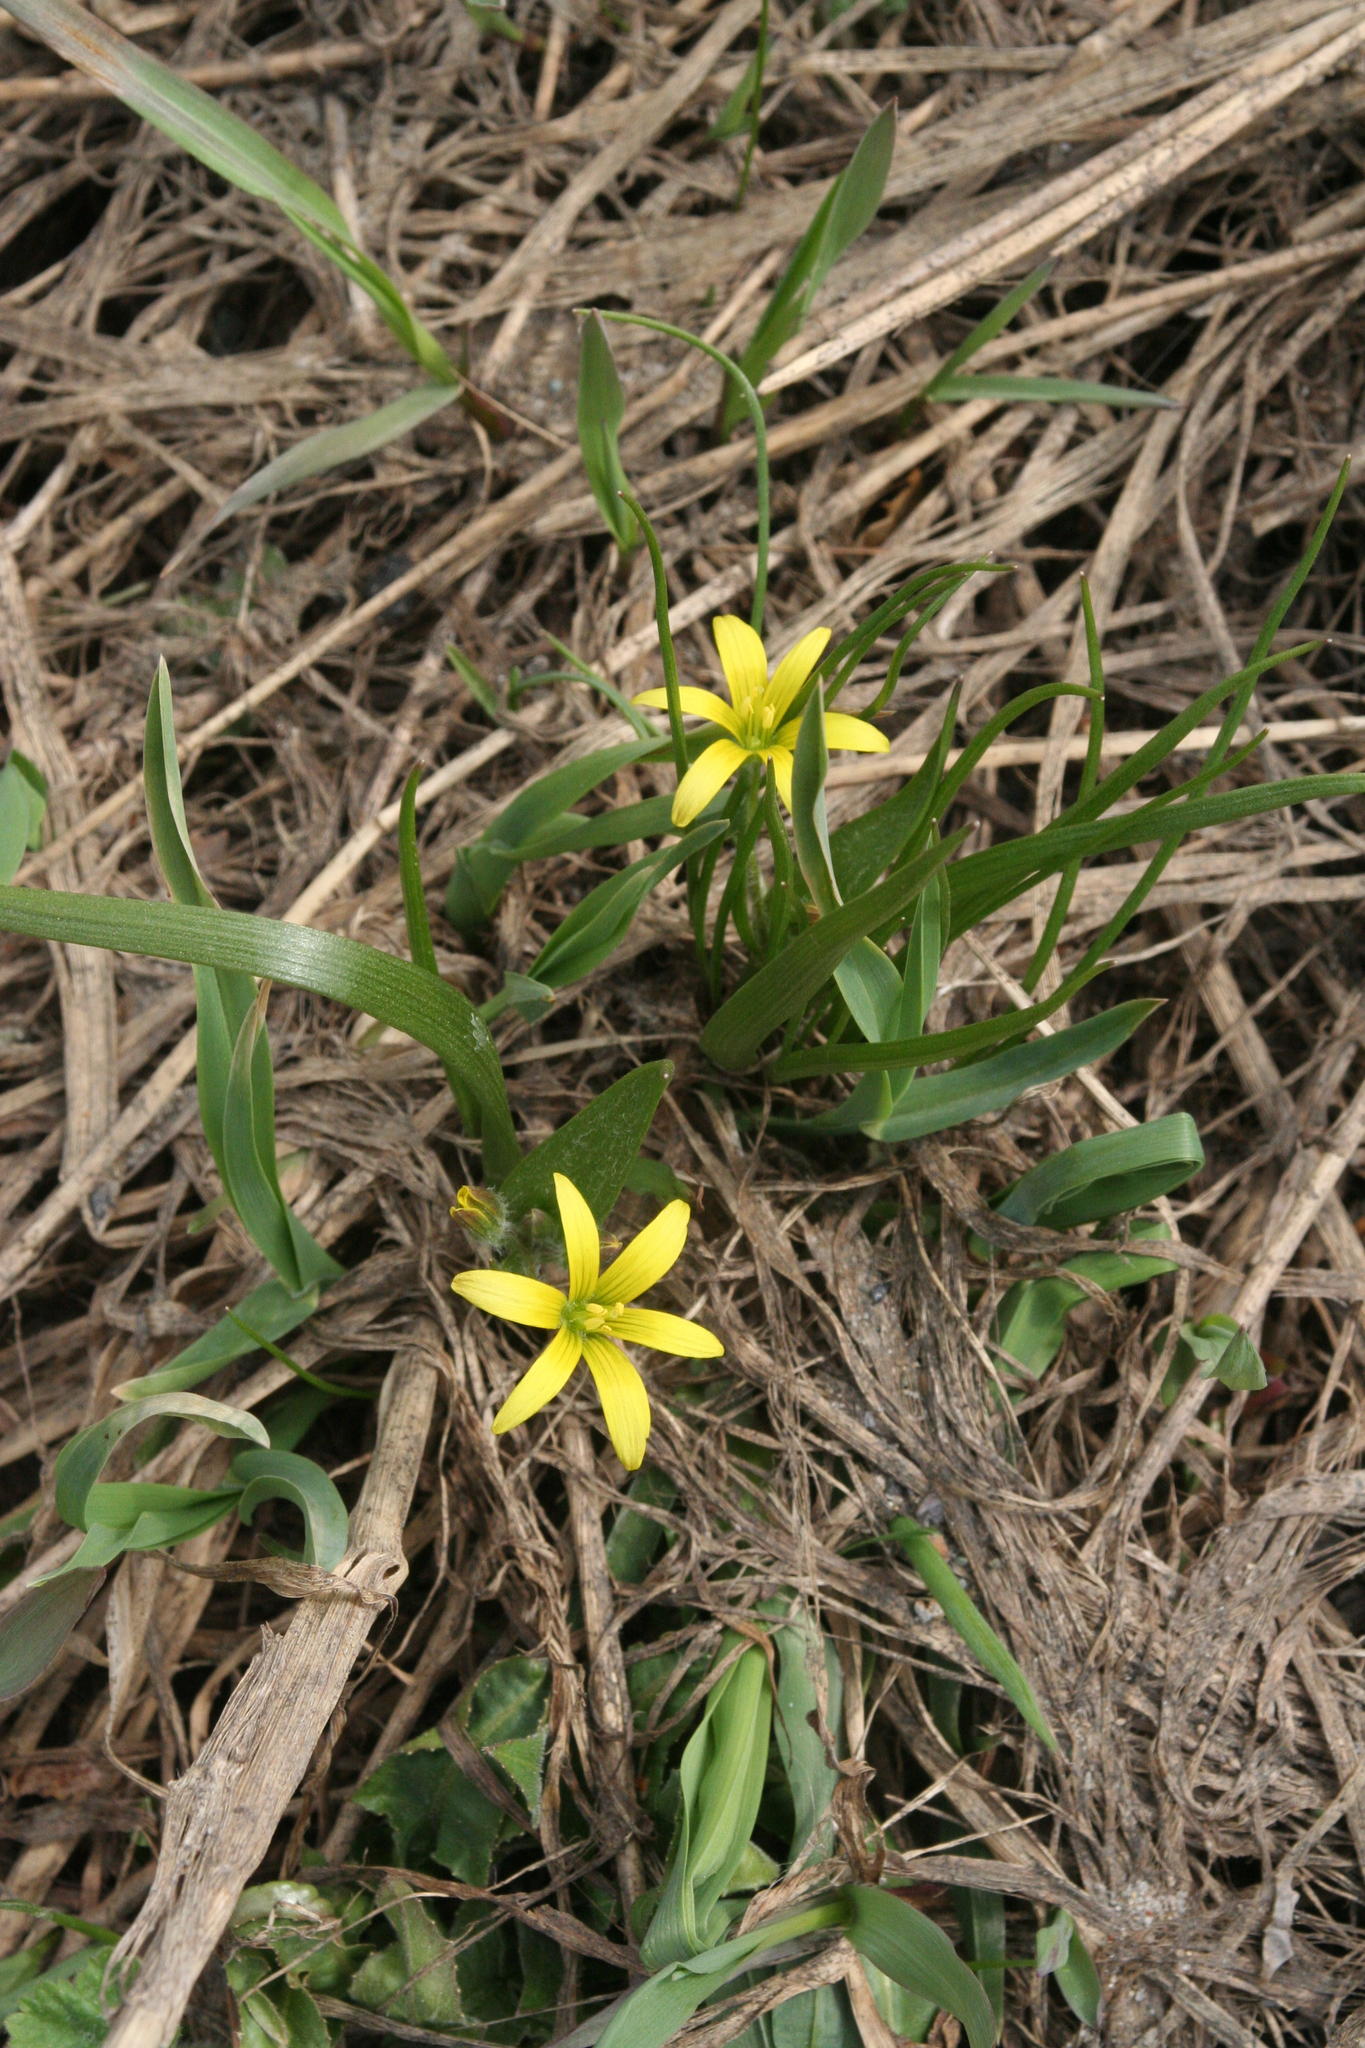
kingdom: Plantae
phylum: Tracheophyta
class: Liliopsida
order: Liliales
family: Liliaceae
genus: Gagea
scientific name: Gagea granulosa
